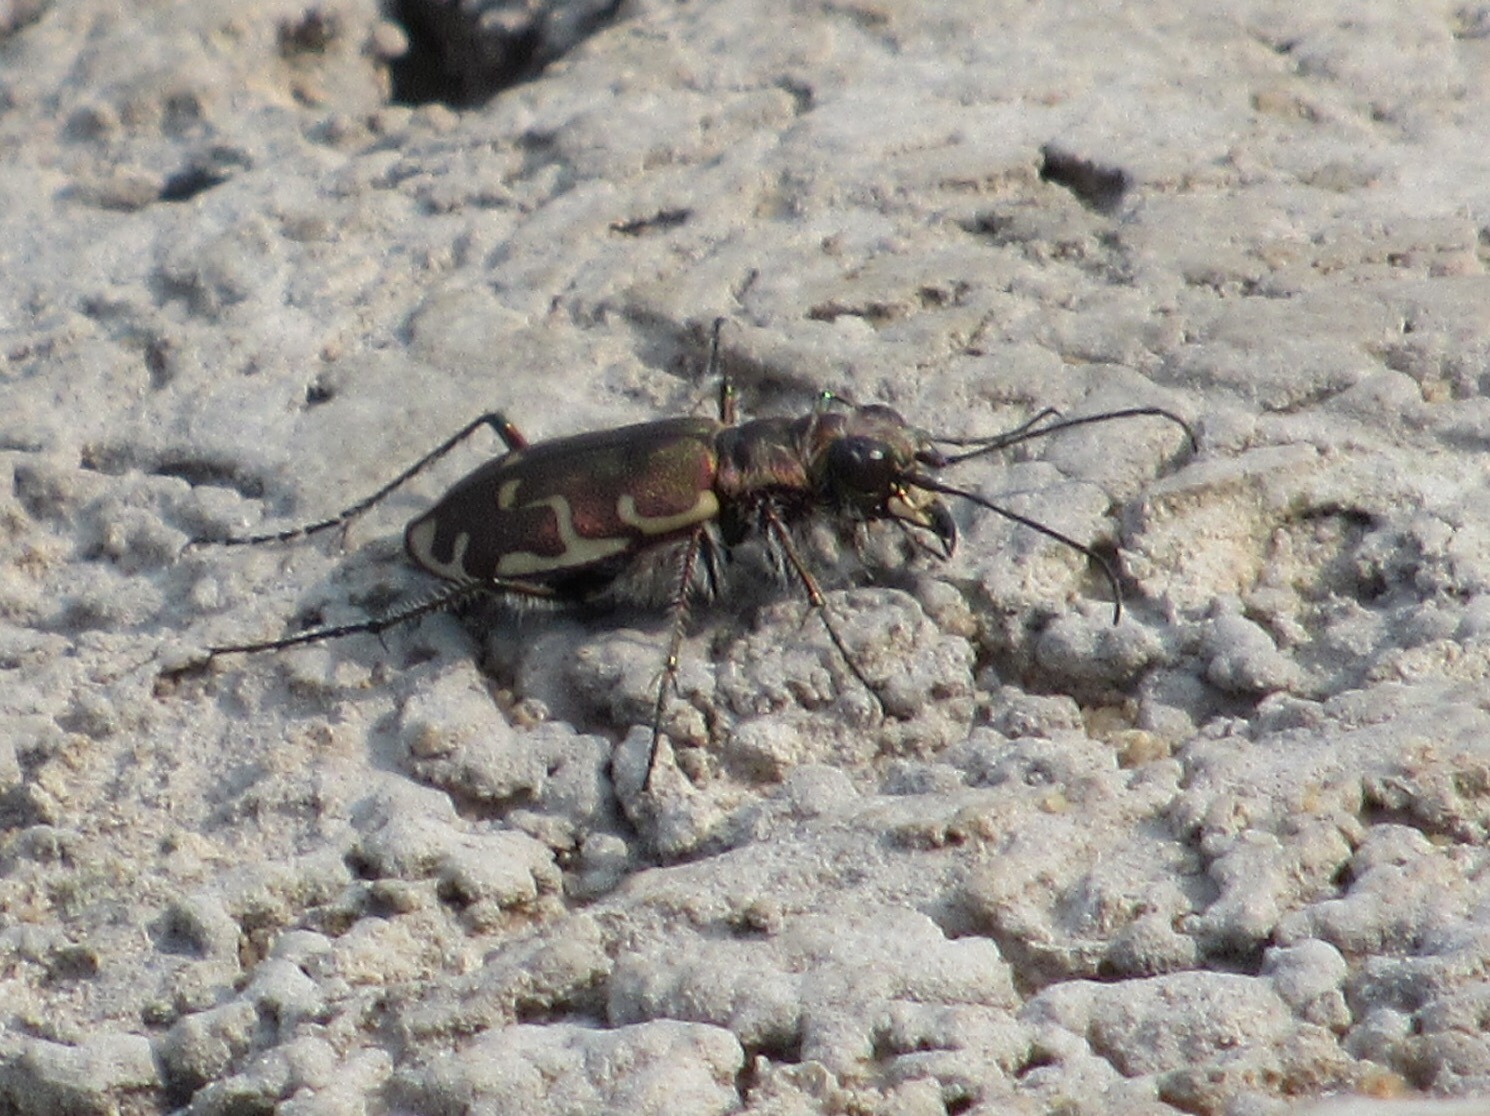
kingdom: Animalia
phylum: Arthropoda
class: Insecta
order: Coleoptera
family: Carabidae
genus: Cicindela
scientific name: Cicindela repanda
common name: Bronzed tiger beetle
